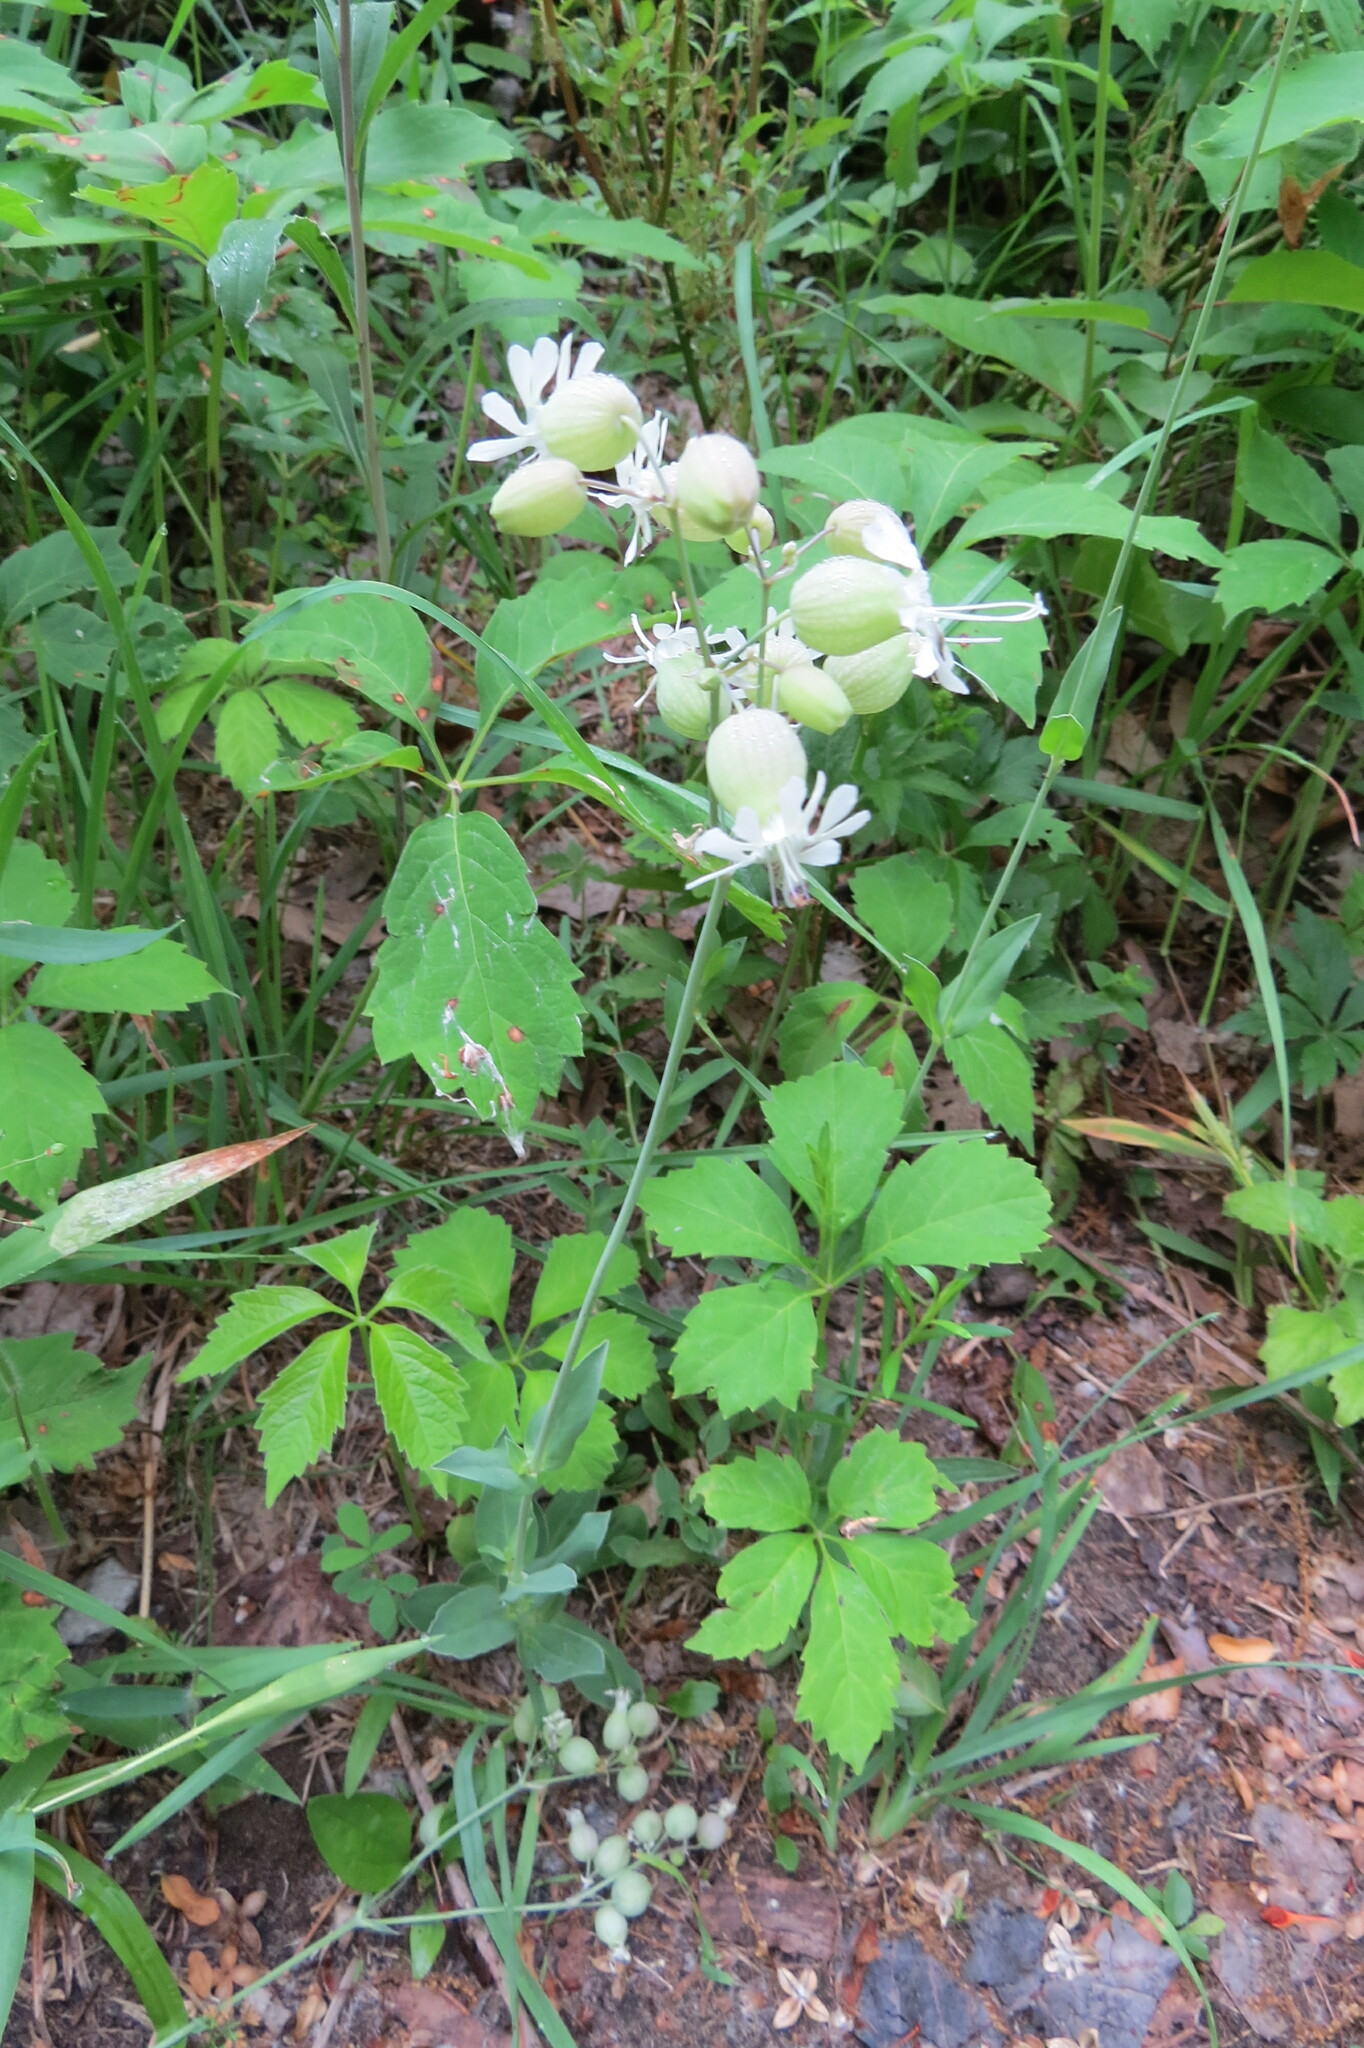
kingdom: Plantae
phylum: Tracheophyta
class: Magnoliopsida
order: Caryophyllales
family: Caryophyllaceae
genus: Silene
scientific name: Silene vulgaris
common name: Bladder campion
